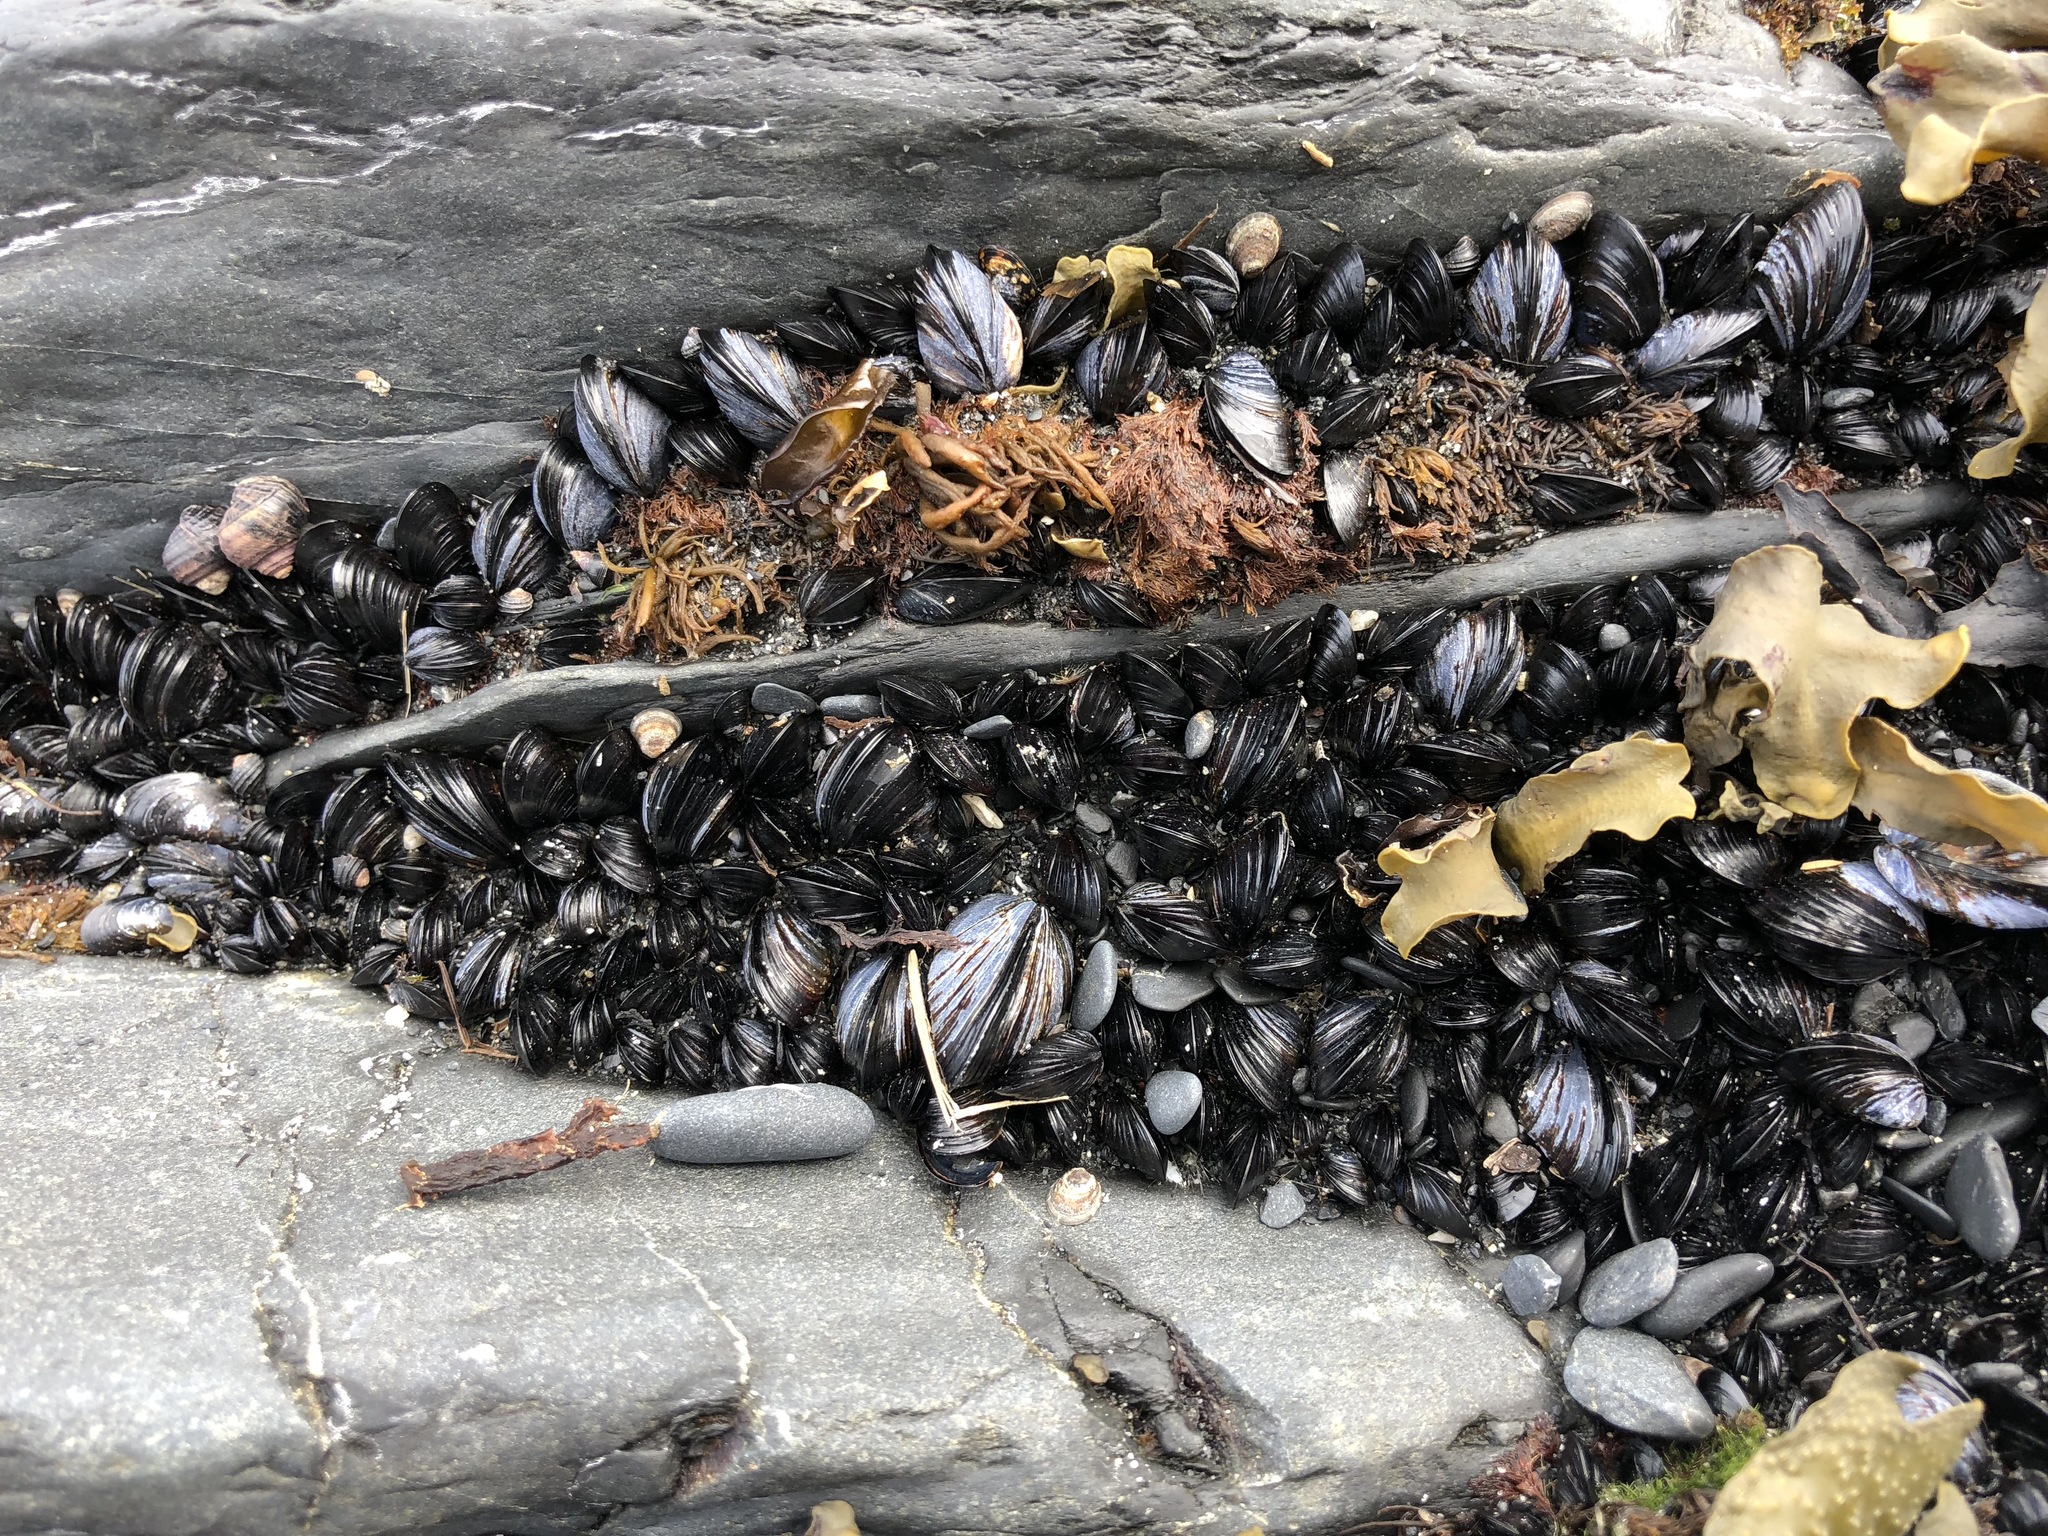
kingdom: Animalia
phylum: Mollusca
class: Bivalvia
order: Mytilida
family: Mytilidae
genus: Mytilus
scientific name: Mytilus trossulus
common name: Northern blue mussel
